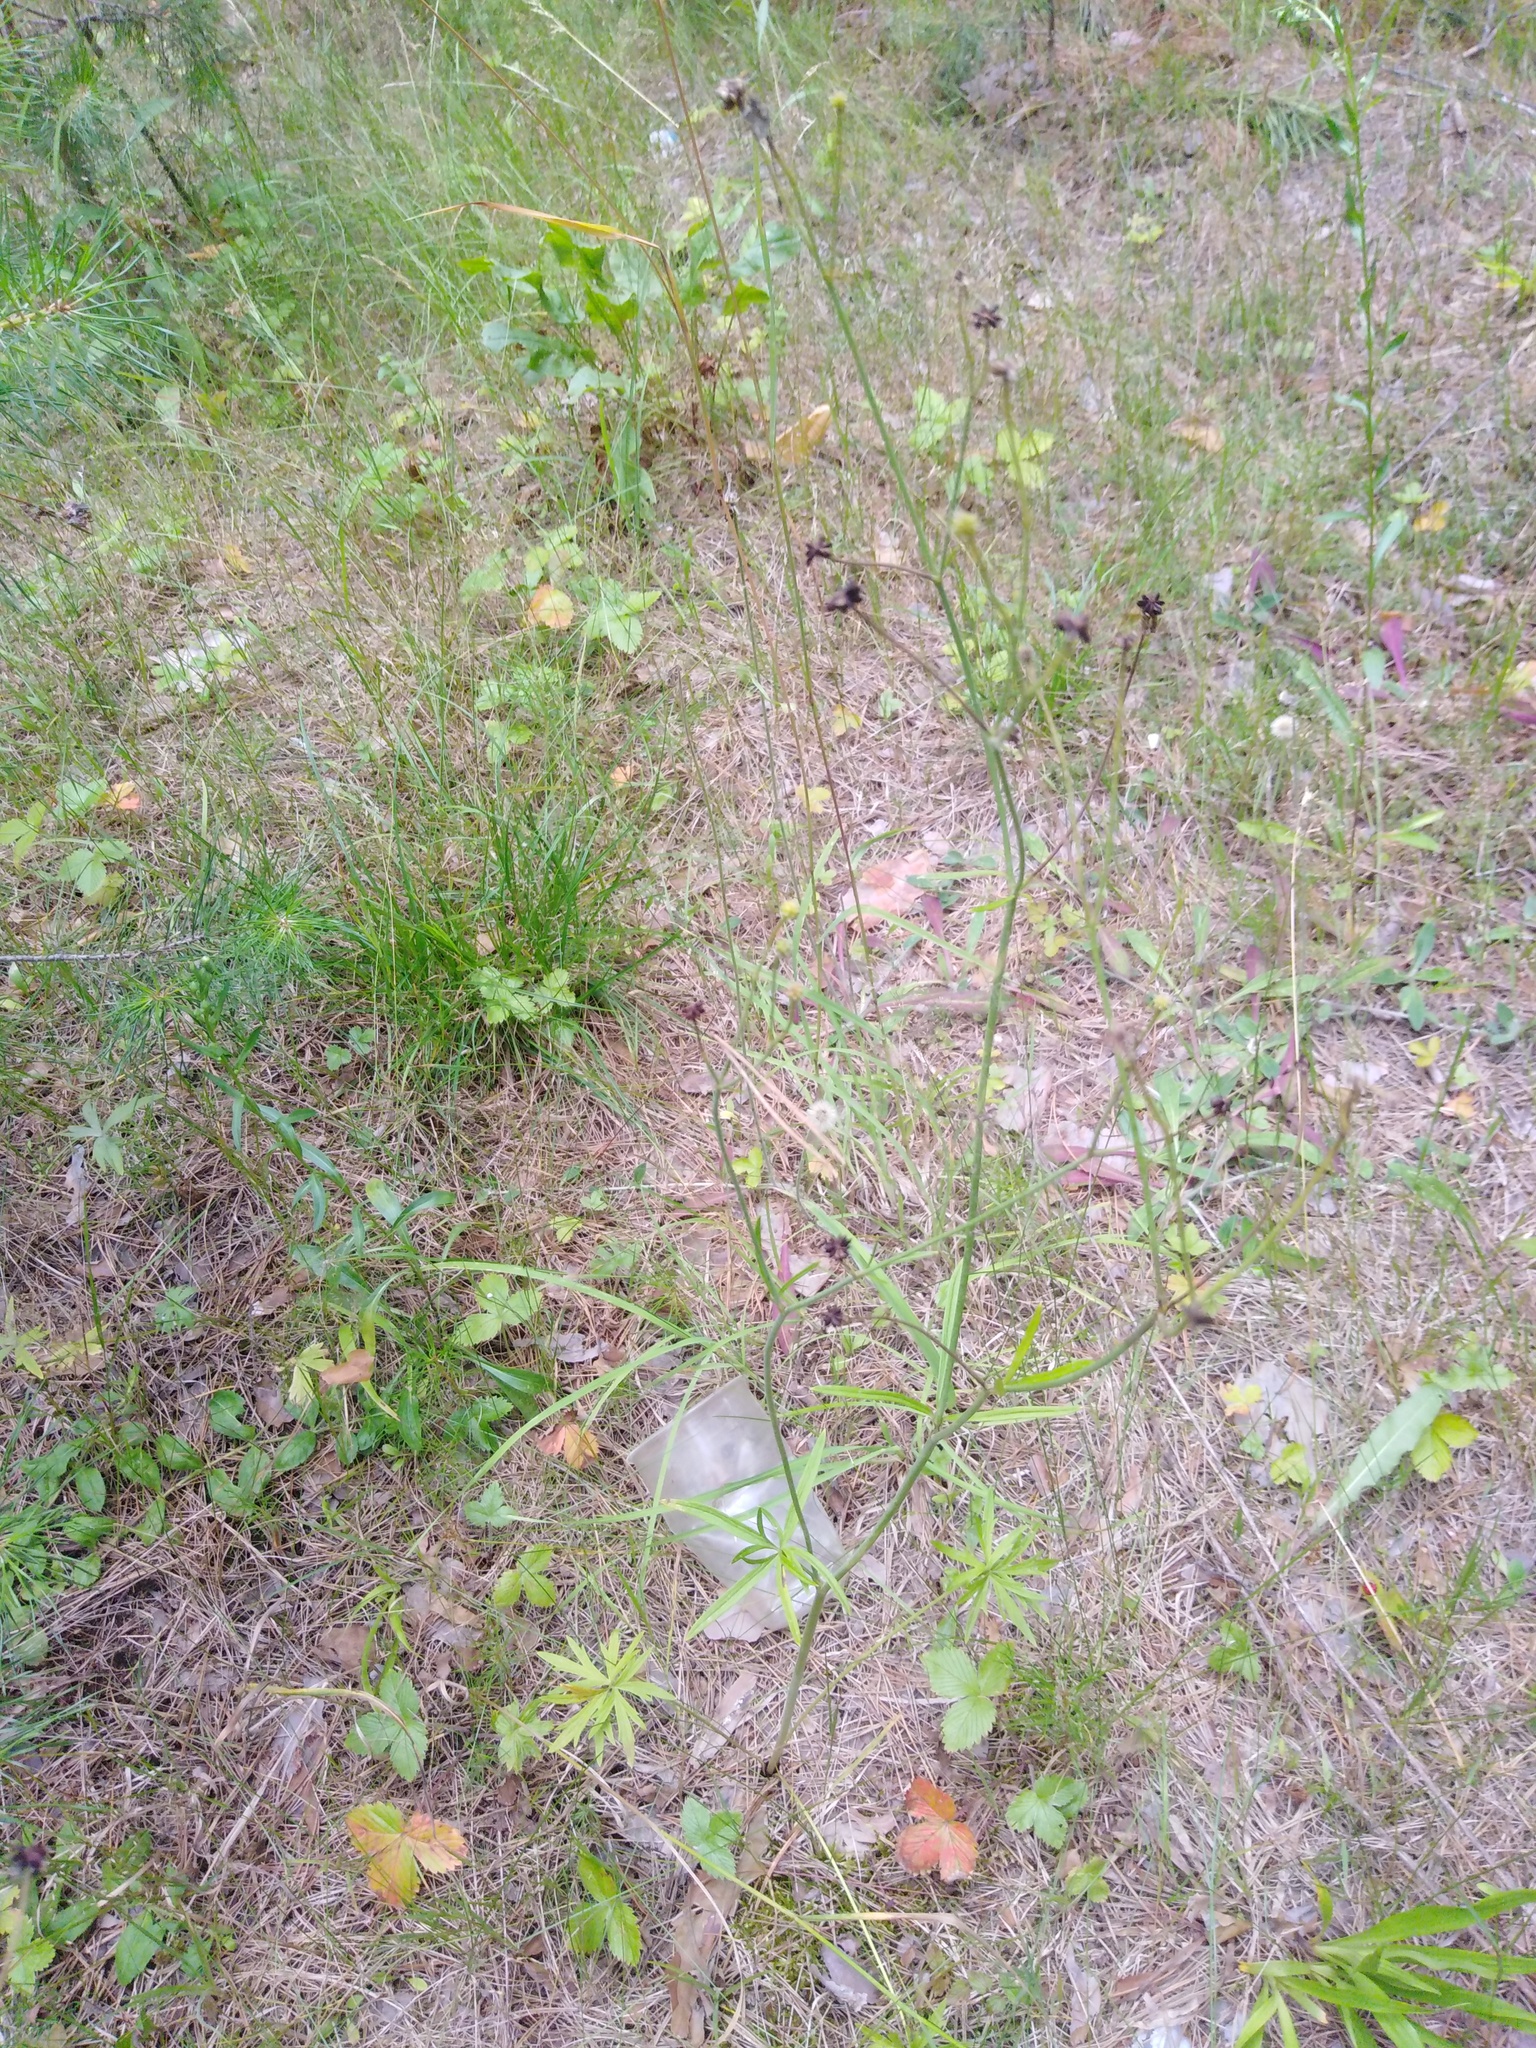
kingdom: Plantae
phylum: Tracheophyta
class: Magnoliopsida
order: Ranunculales
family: Ranunculaceae
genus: Ranunculus
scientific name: Ranunculus acris
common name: Meadow buttercup
